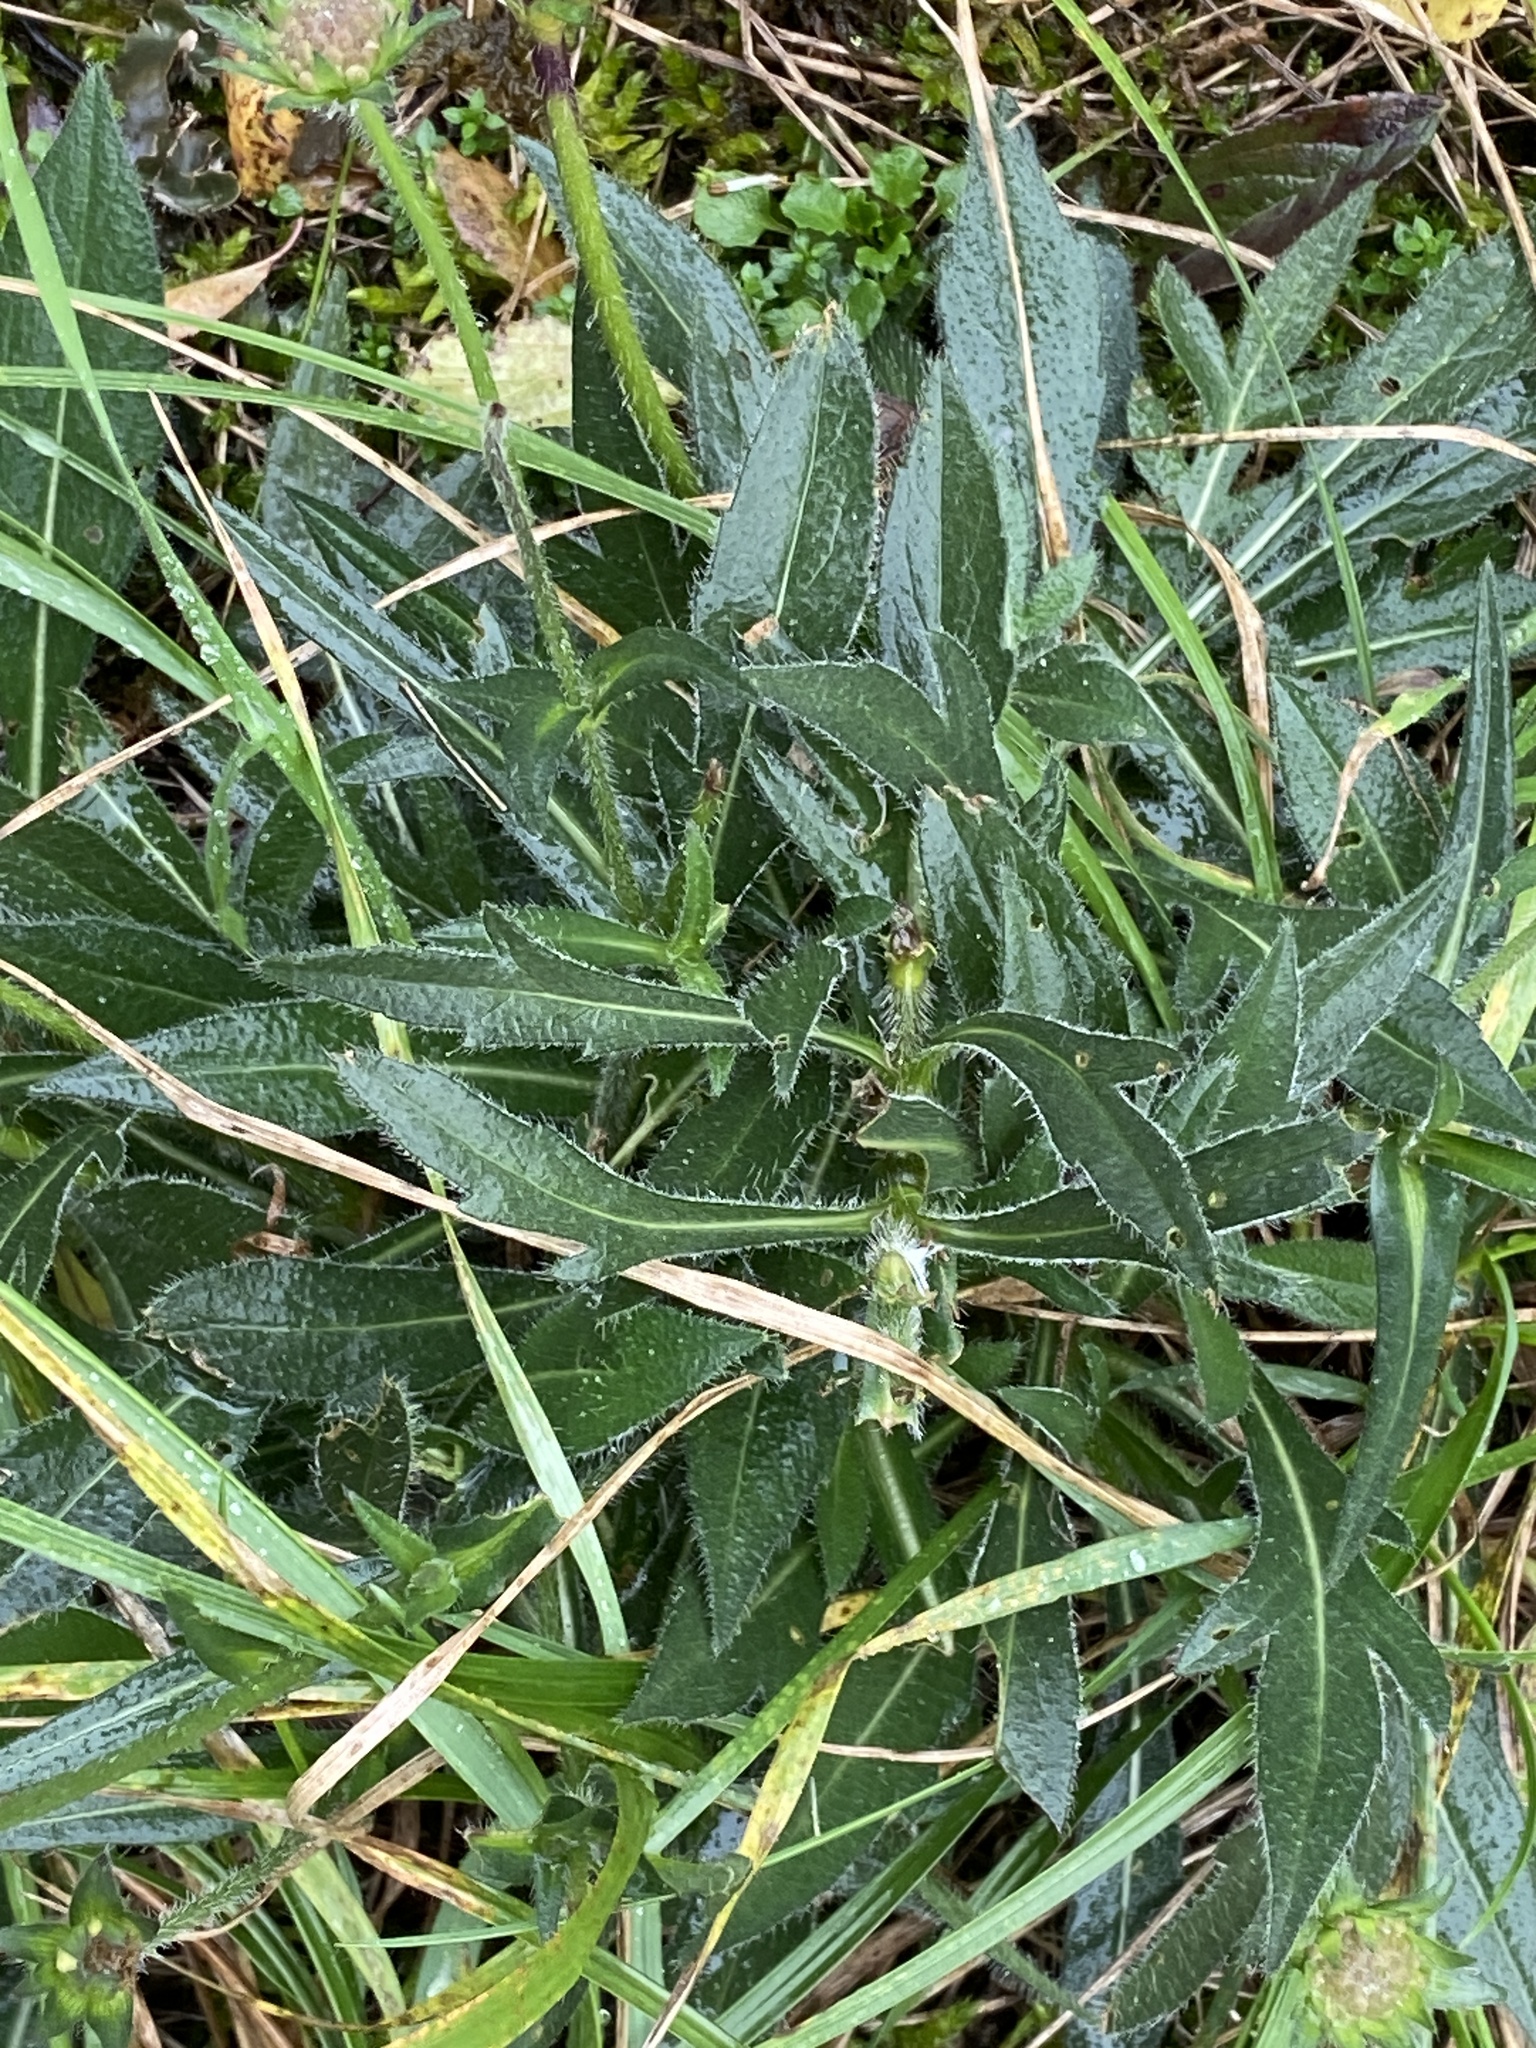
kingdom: Plantae
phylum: Tracheophyta
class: Magnoliopsida
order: Dipsacales
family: Caprifoliaceae
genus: Knautia
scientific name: Knautia arvensis
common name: Field scabiosa
